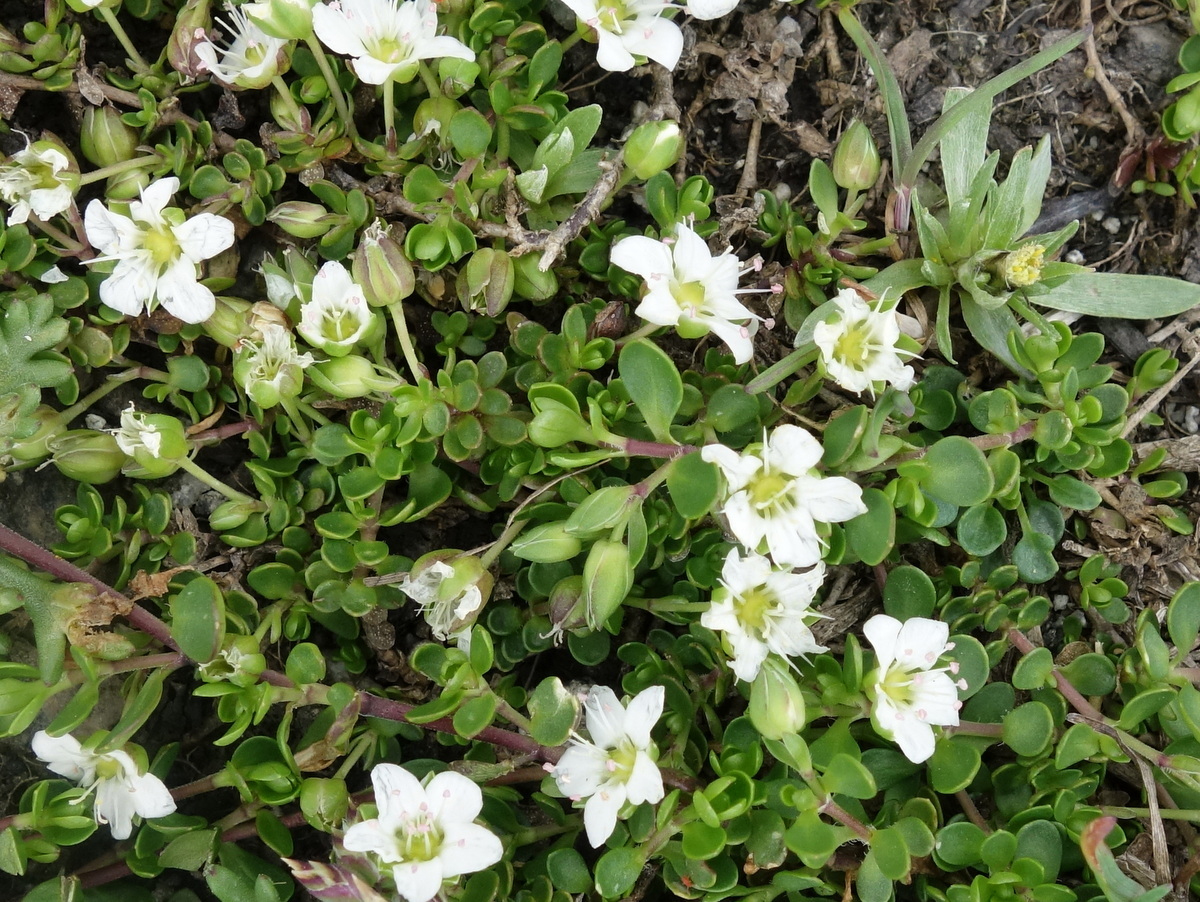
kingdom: Plantae
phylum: Tracheophyta
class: Magnoliopsida
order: Caryophyllales
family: Caryophyllaceae
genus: Arenaria
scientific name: Arenaria biflora
